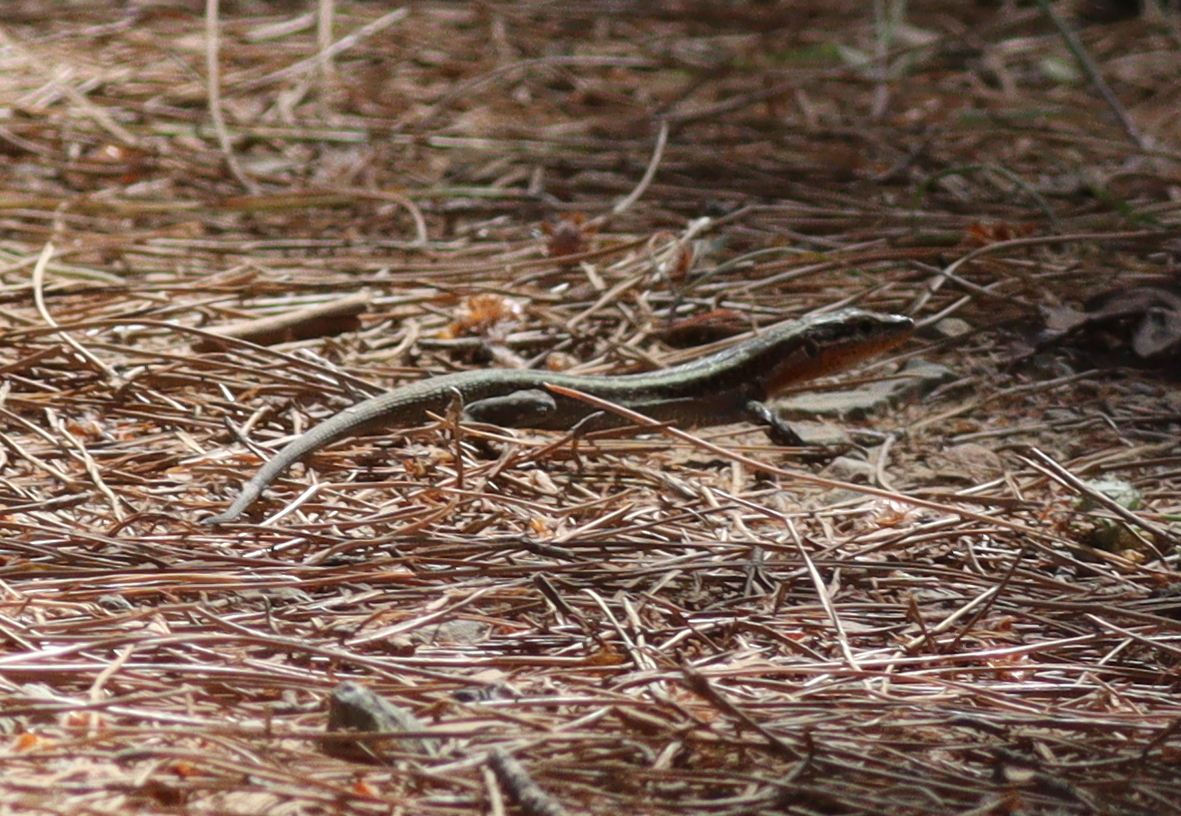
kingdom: Animalia
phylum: Chordata
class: Squamata
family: Lacertidae
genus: Anatololacerta
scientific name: Anatololacerta finikensis
